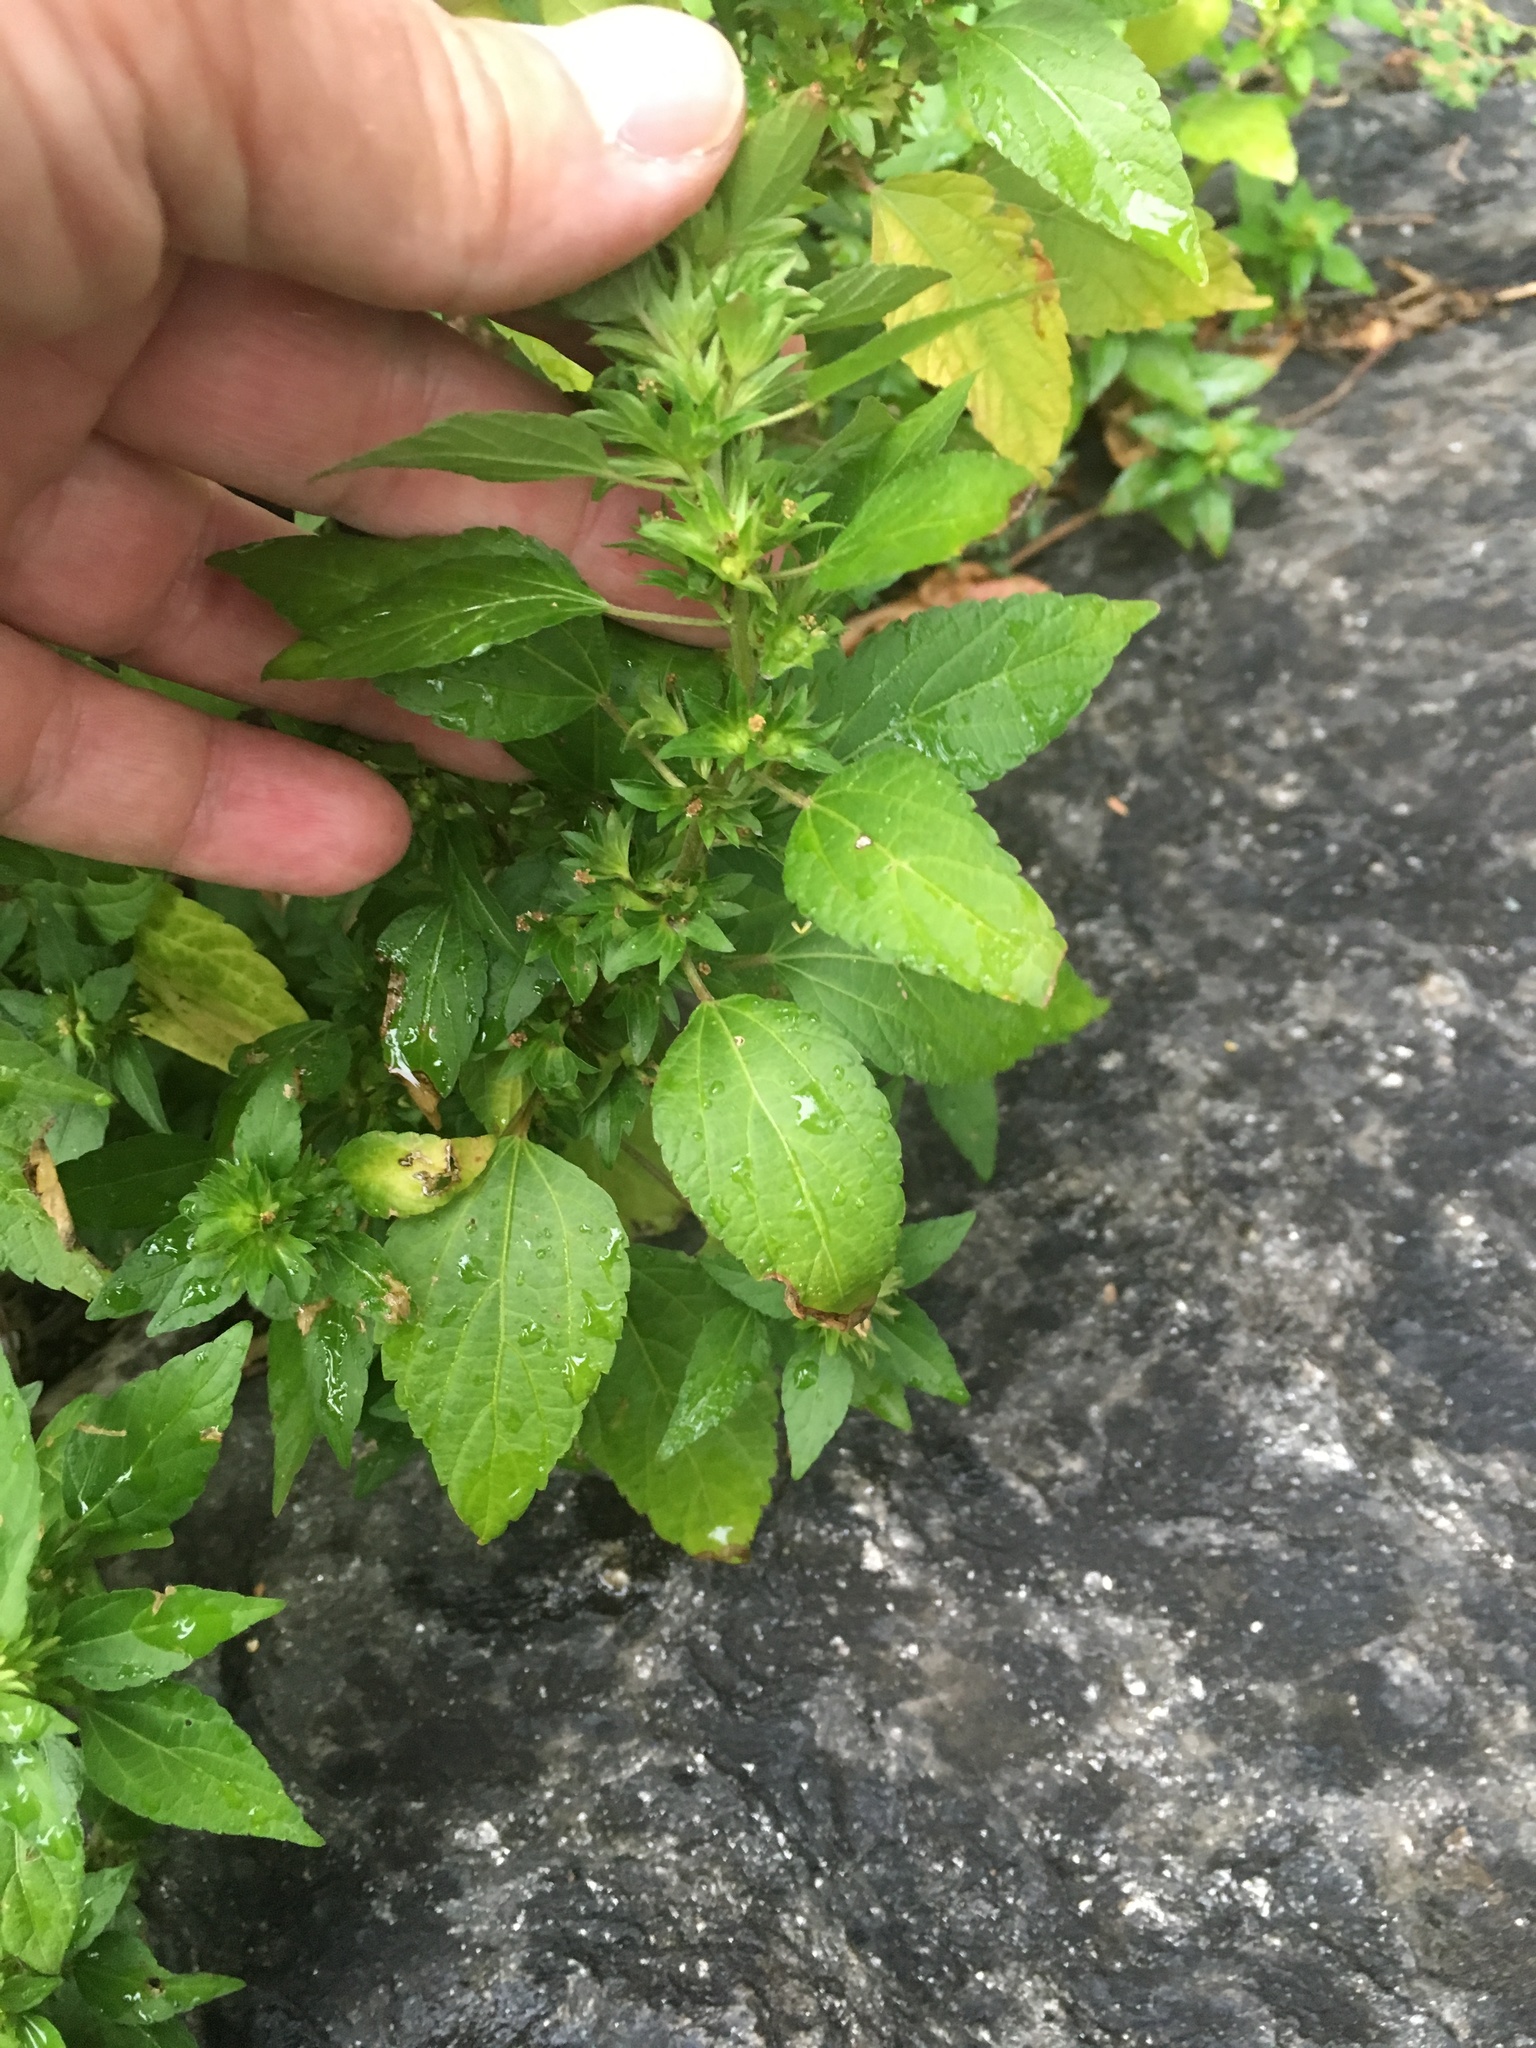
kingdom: Plantae
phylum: Tracheophyta
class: Magnoliopsida
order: Malpighiales
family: Euphorbiaceae
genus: Acalypha
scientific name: Acalypha rhomboidea
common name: Rhombic copperleaf
